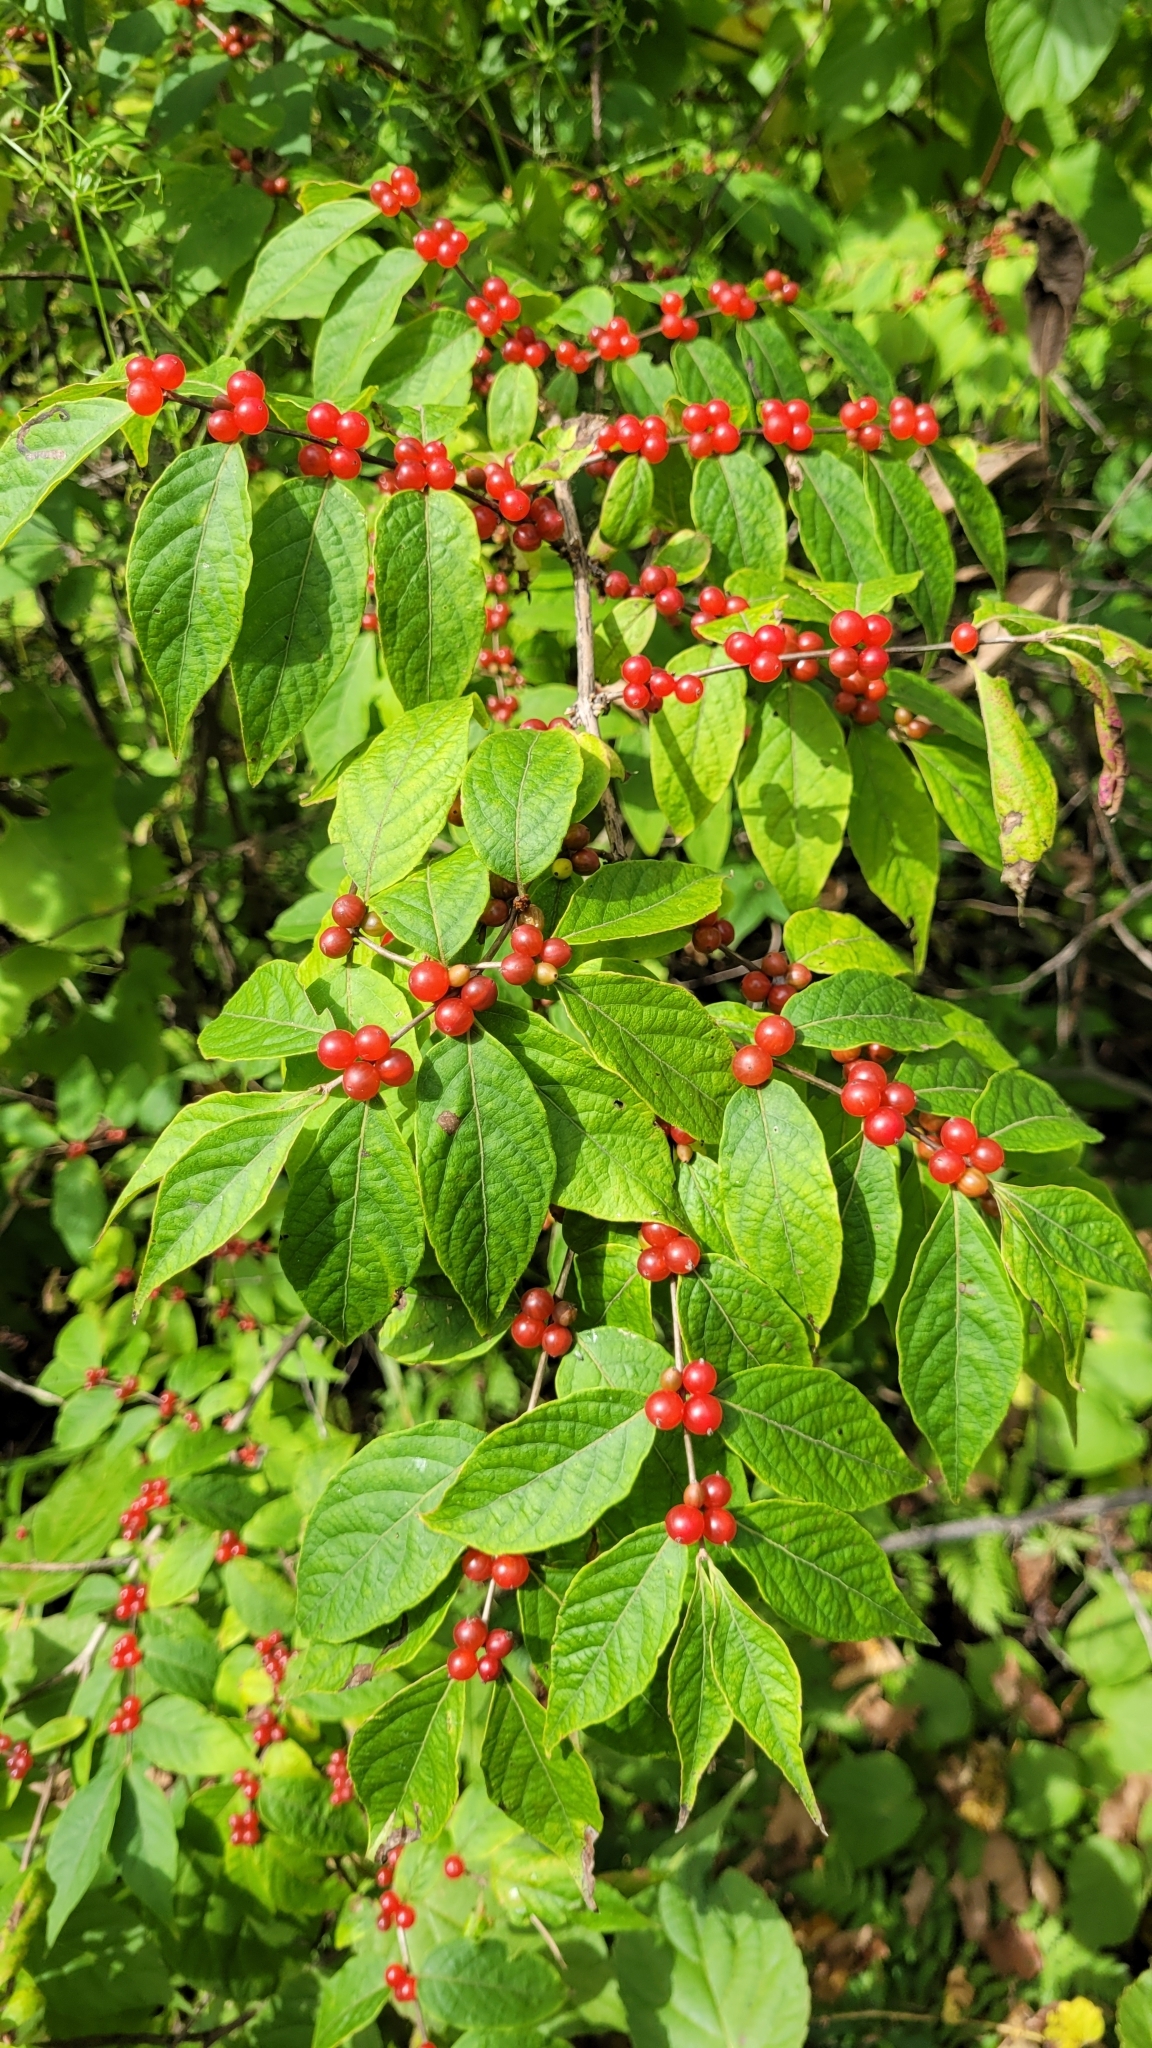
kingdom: Plantae
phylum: Tracheophyta
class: Magnoliopsida
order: Dipsacales
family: Caprifoliaceae
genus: Lonicera
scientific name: Lonicera maackii
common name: Amur honeysuckle
